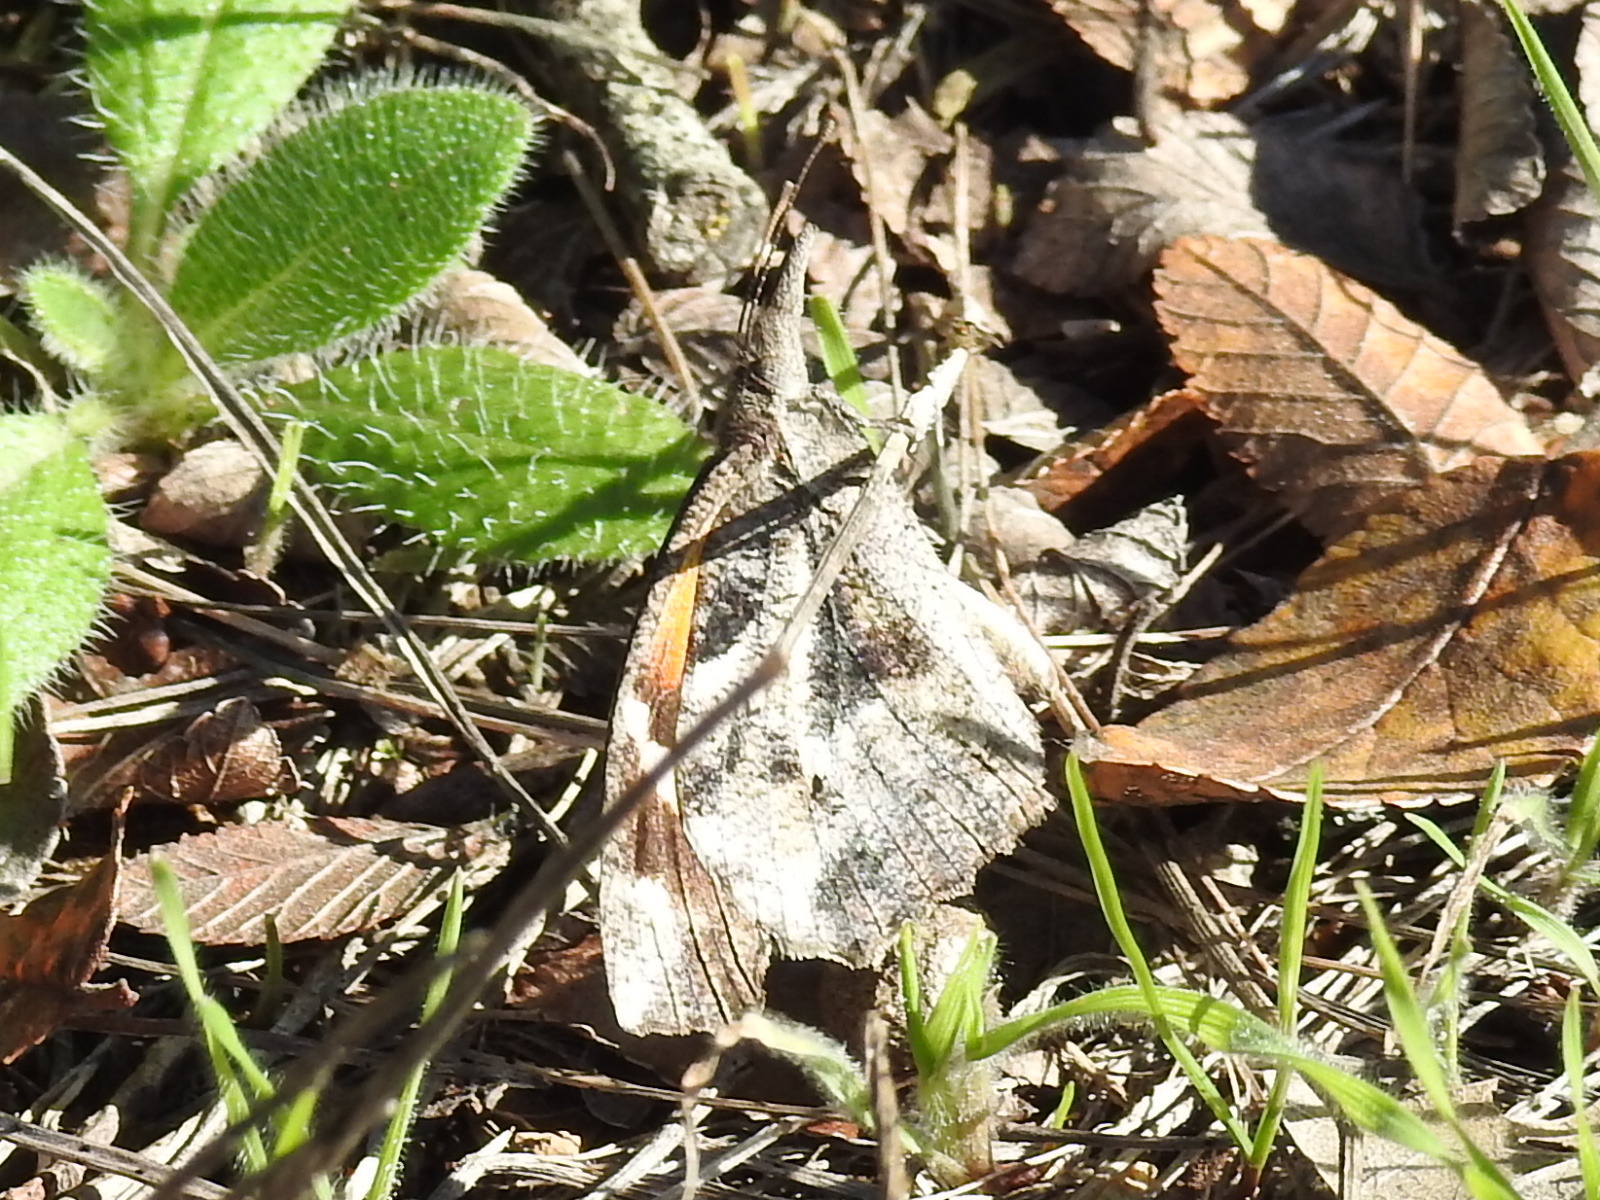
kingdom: Animalia
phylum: Arthropoda
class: Insecta
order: Lepidoptera
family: Nymphalidae
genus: Libytheana
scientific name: Libytheana carinenta
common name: American snout
